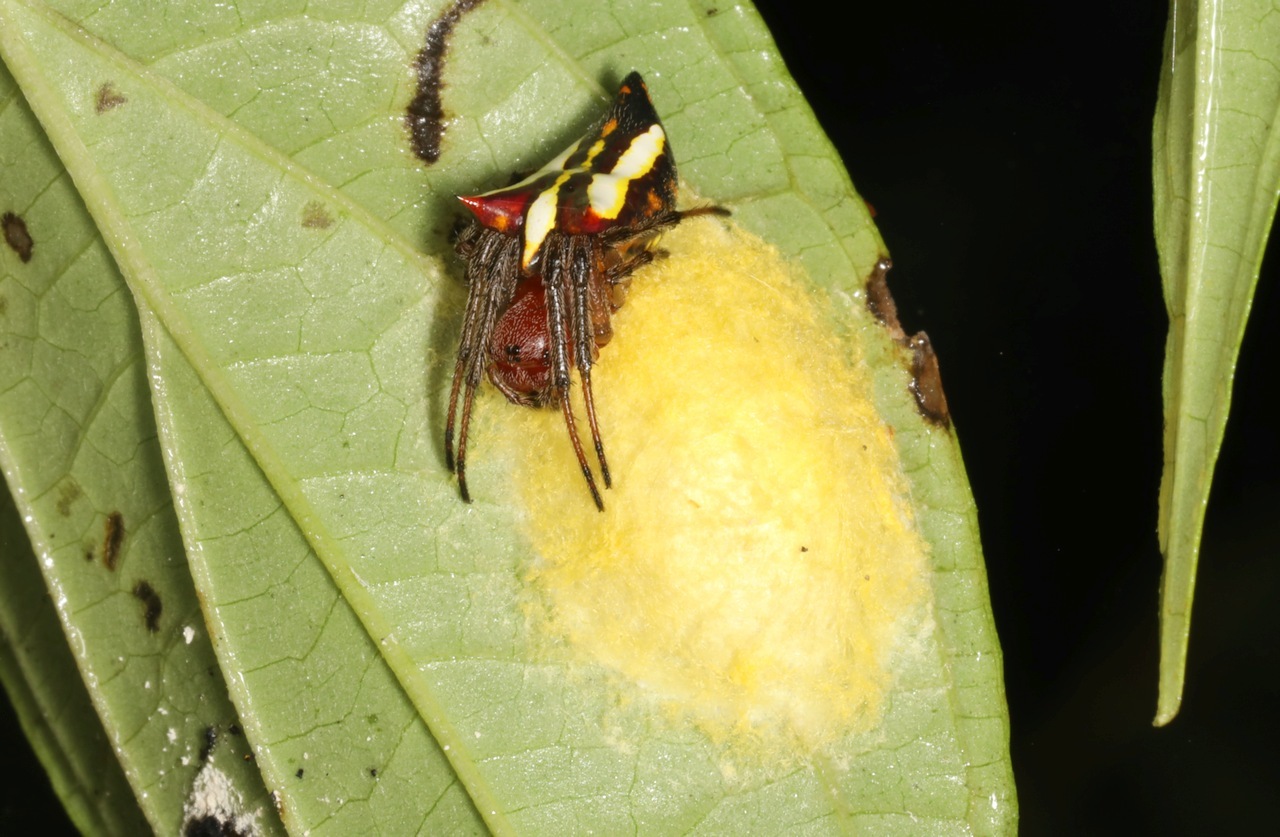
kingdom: Animalia
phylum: Arthropoda
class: Arachnida
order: Araneae
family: Araneidae
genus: Alpaida
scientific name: Alpaida bicornuta
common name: Orb weavers
